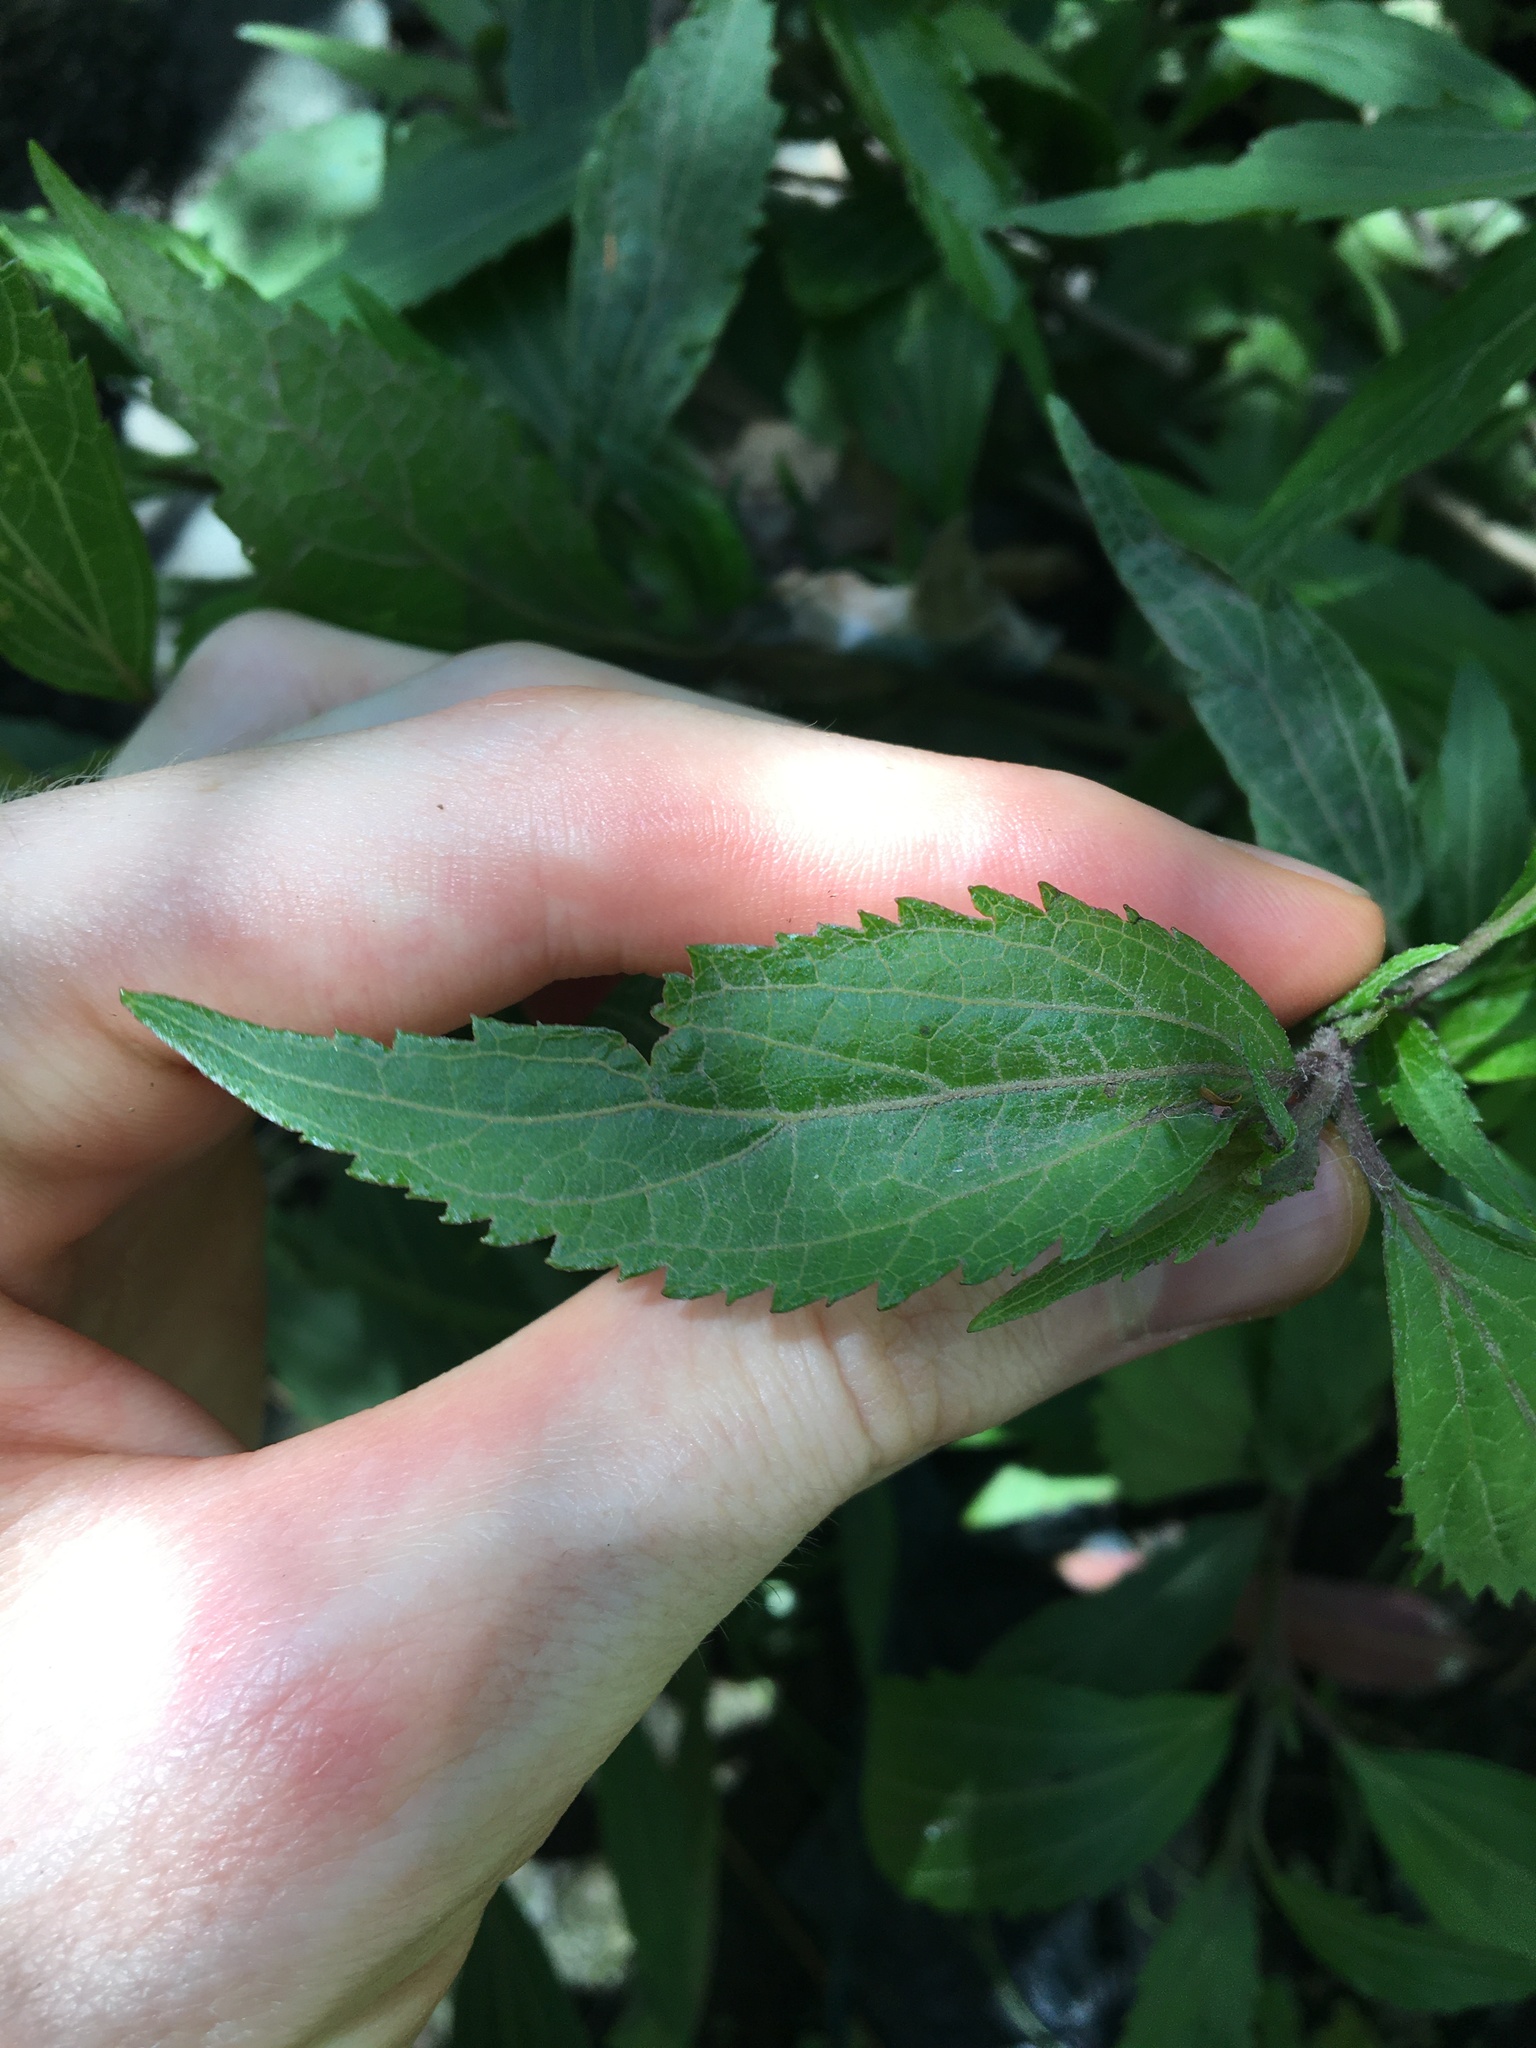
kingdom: Plantae
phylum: Tracheophyta
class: Magnoliopsida
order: Asterales
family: Asteraceae
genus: Ageratina
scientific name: Ageratina riparia
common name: Creeping croftonweed
